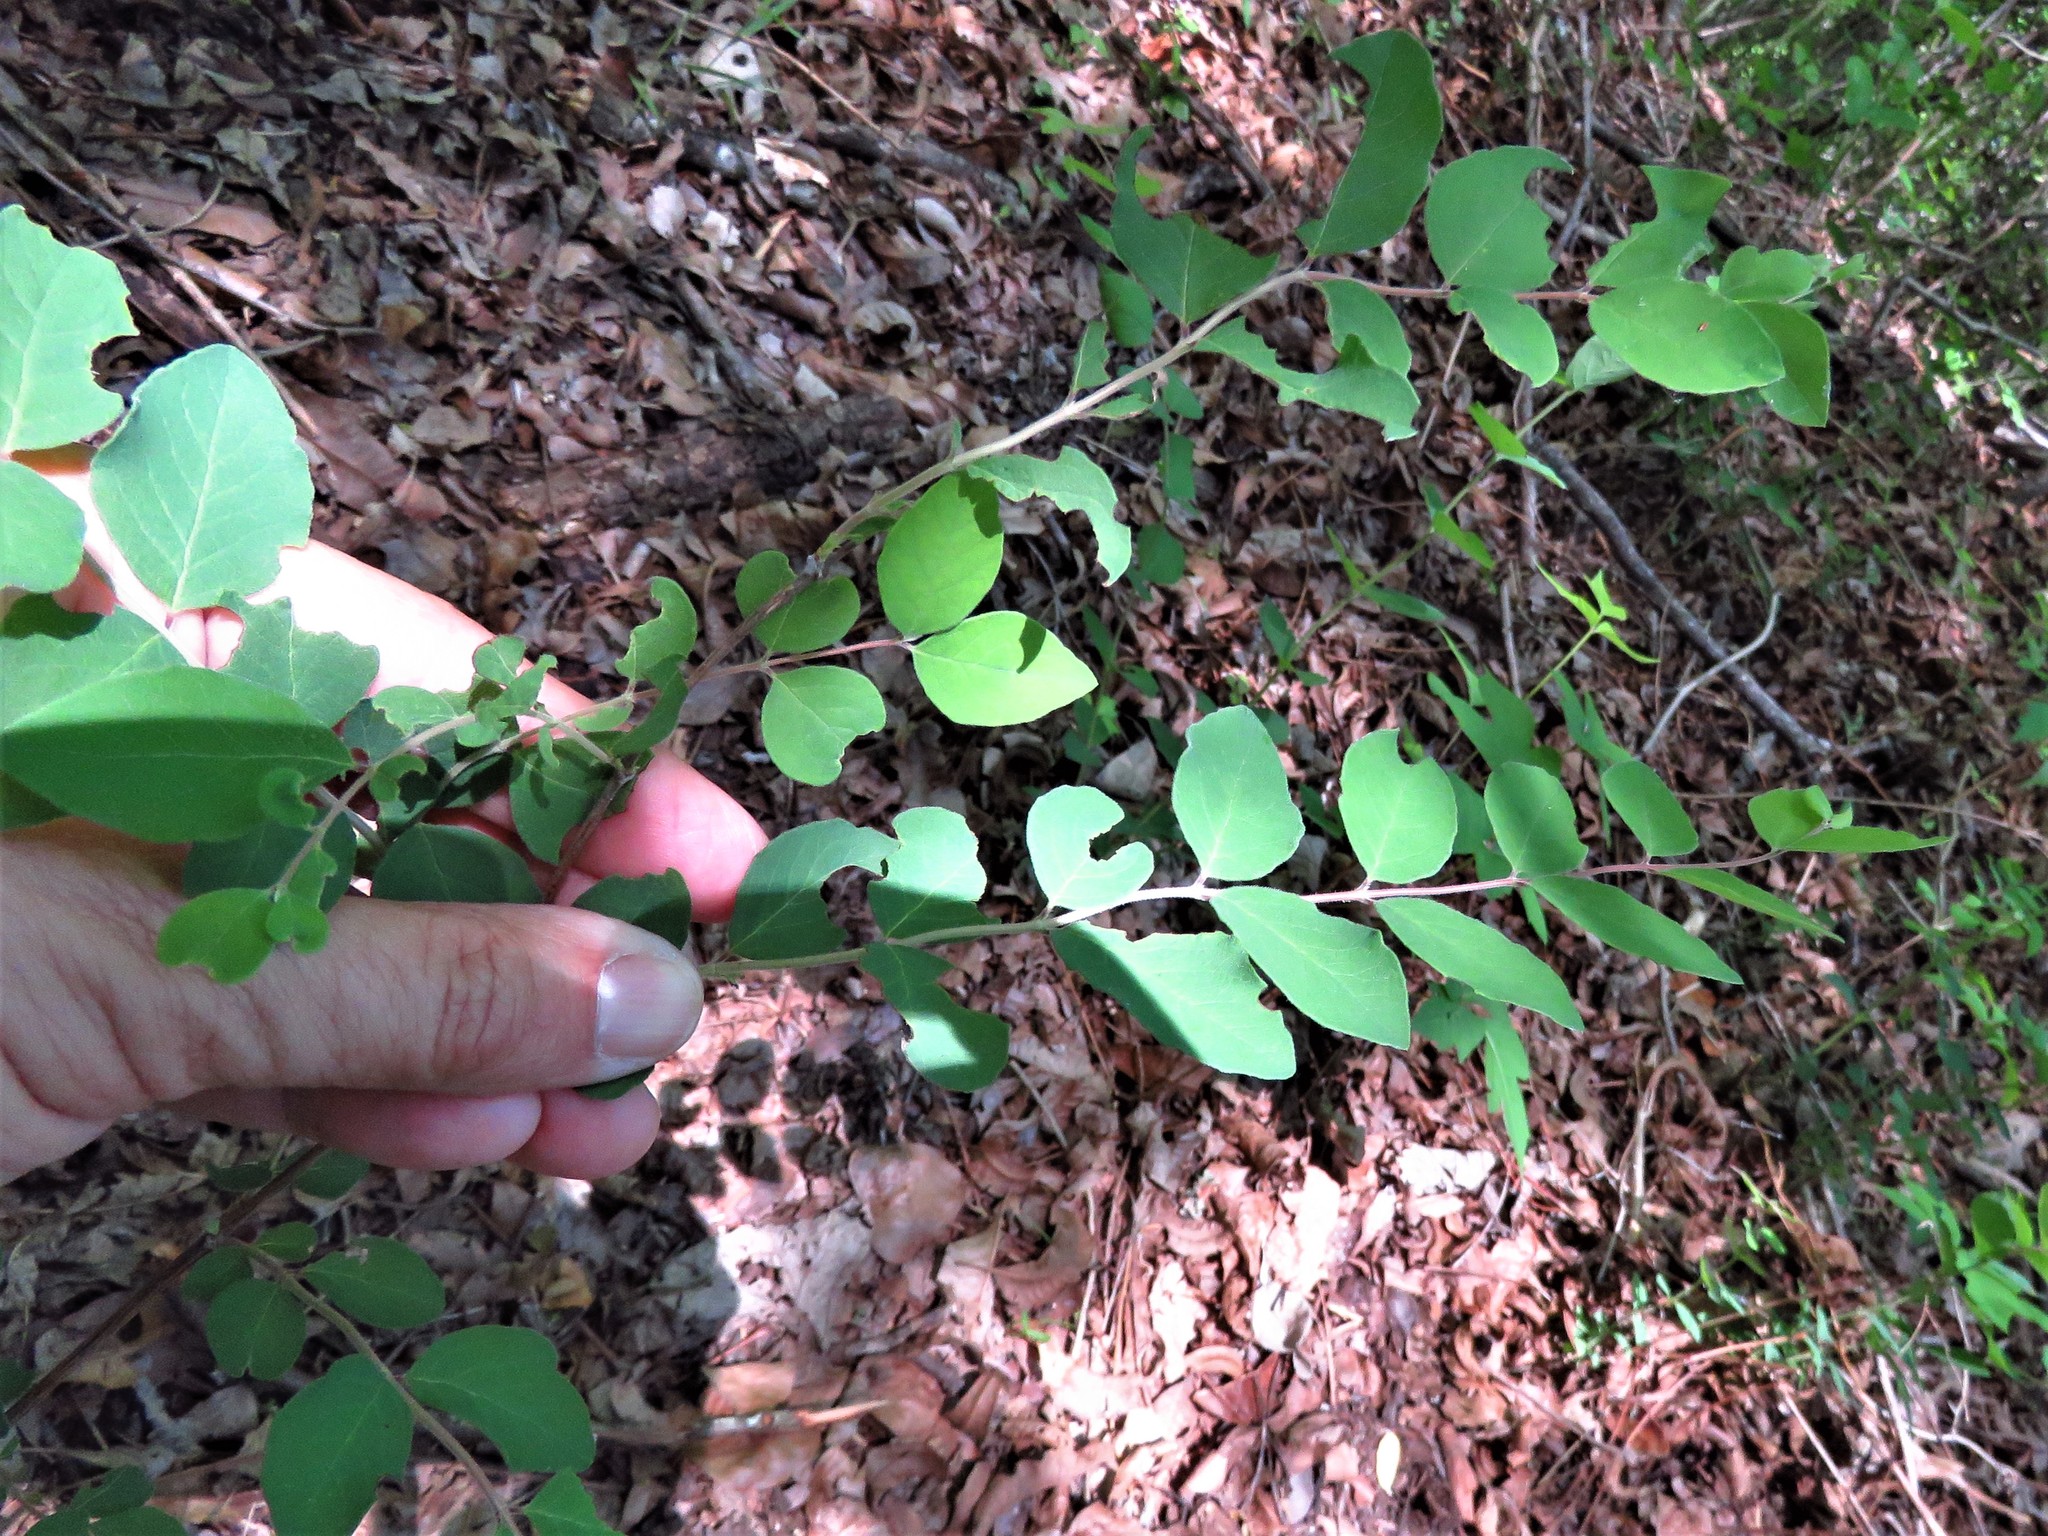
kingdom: Plantae
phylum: Tracheophyta
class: Magnoliopsida
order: Dipsacales
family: Caprifoliaceae
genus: Symphoricarpos
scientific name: Symphoricarpos orbiculatus
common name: Coralberry
